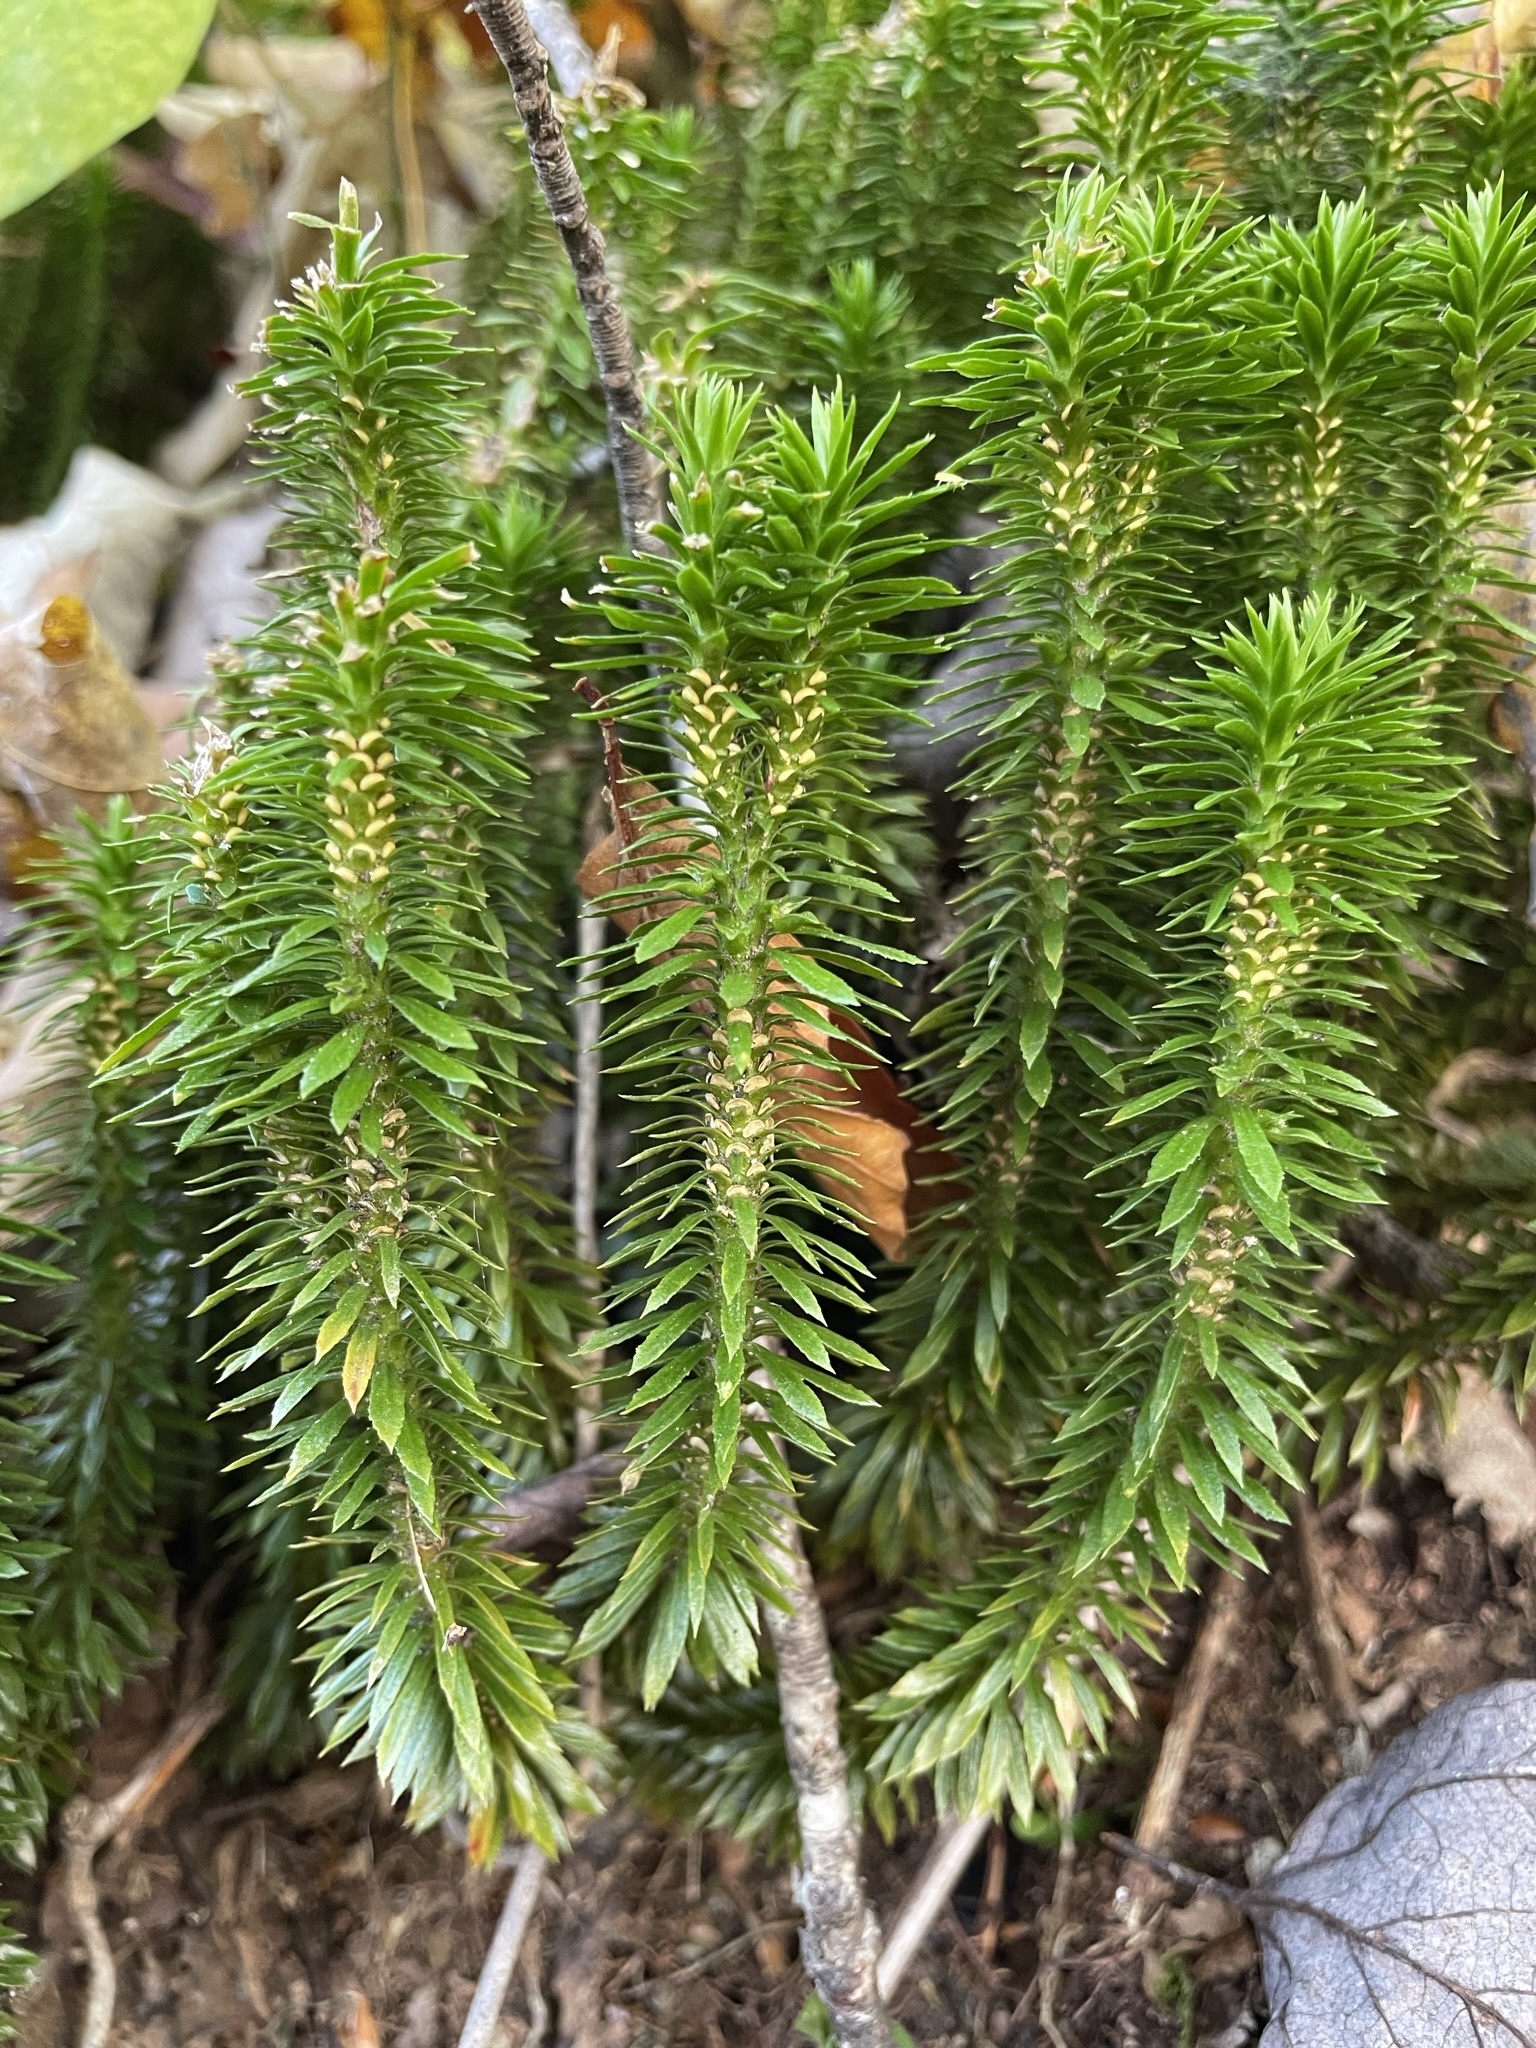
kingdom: Plantae
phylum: Tracheophyta
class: Lycopodiopsida
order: Lycopodiales
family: Lycopodiaceae
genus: Huperzia
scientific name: Huperzia lucidula
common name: Shining clubmoss
